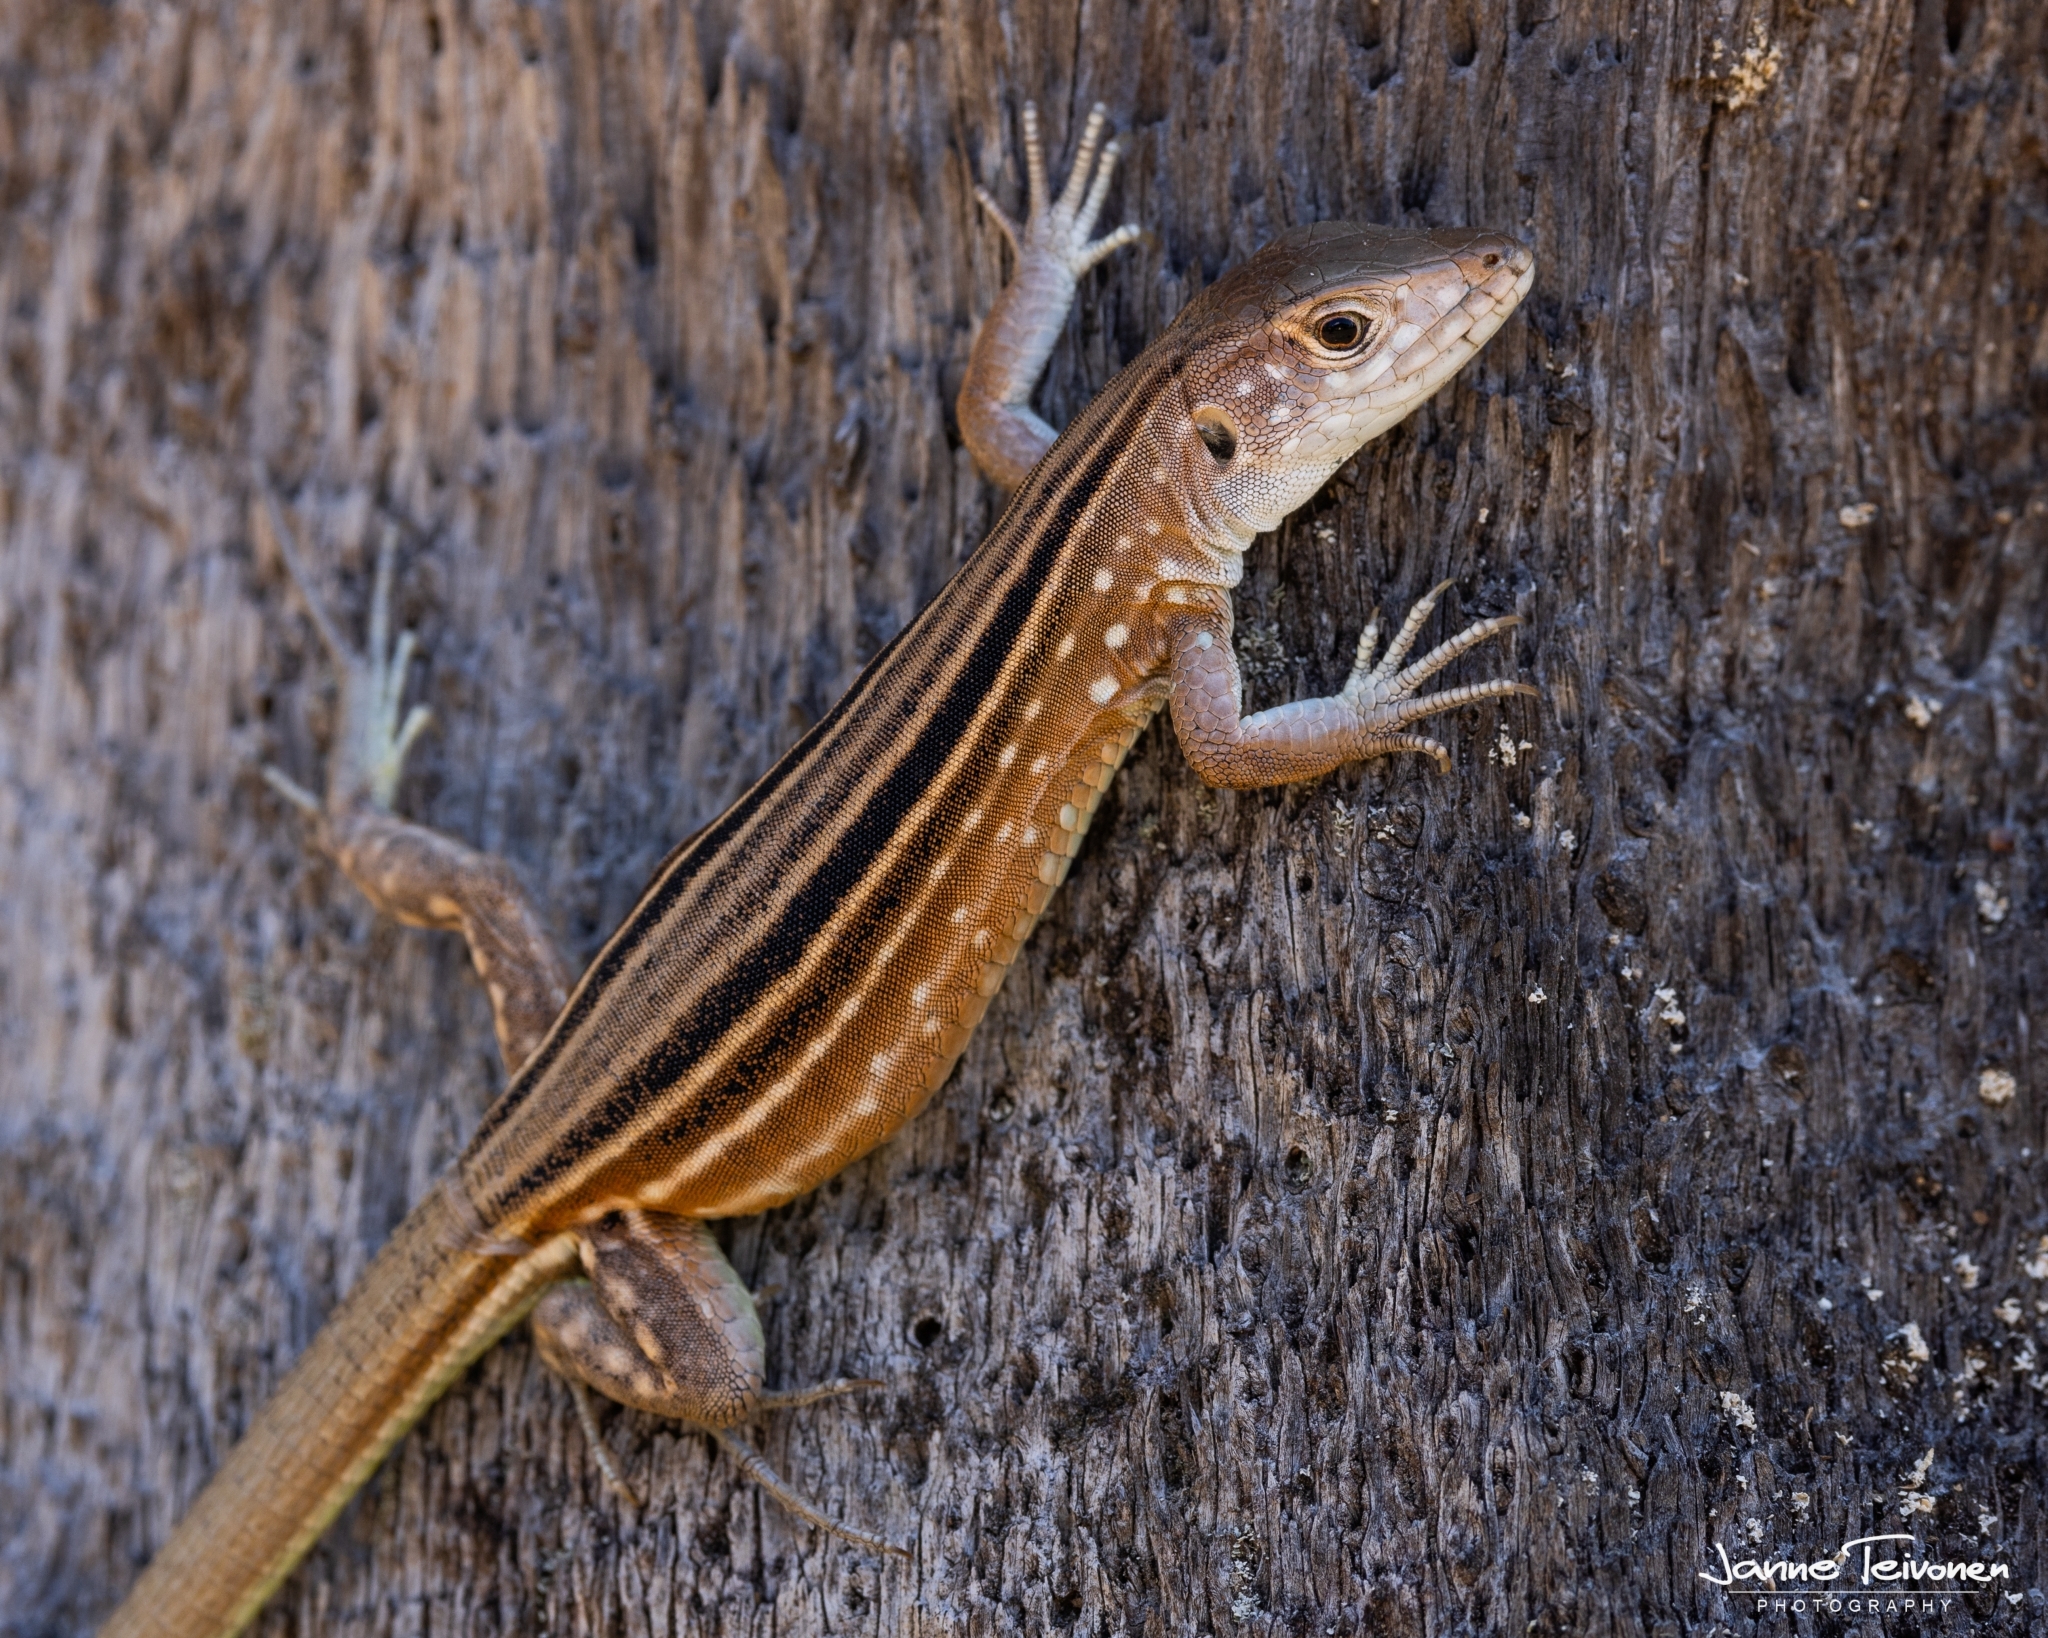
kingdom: Animalia
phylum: Chordata
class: Squamata
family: Teiidae
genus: Cnemidophorus
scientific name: Cnemidophorus lemniscatus
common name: Rainbow whiptail
